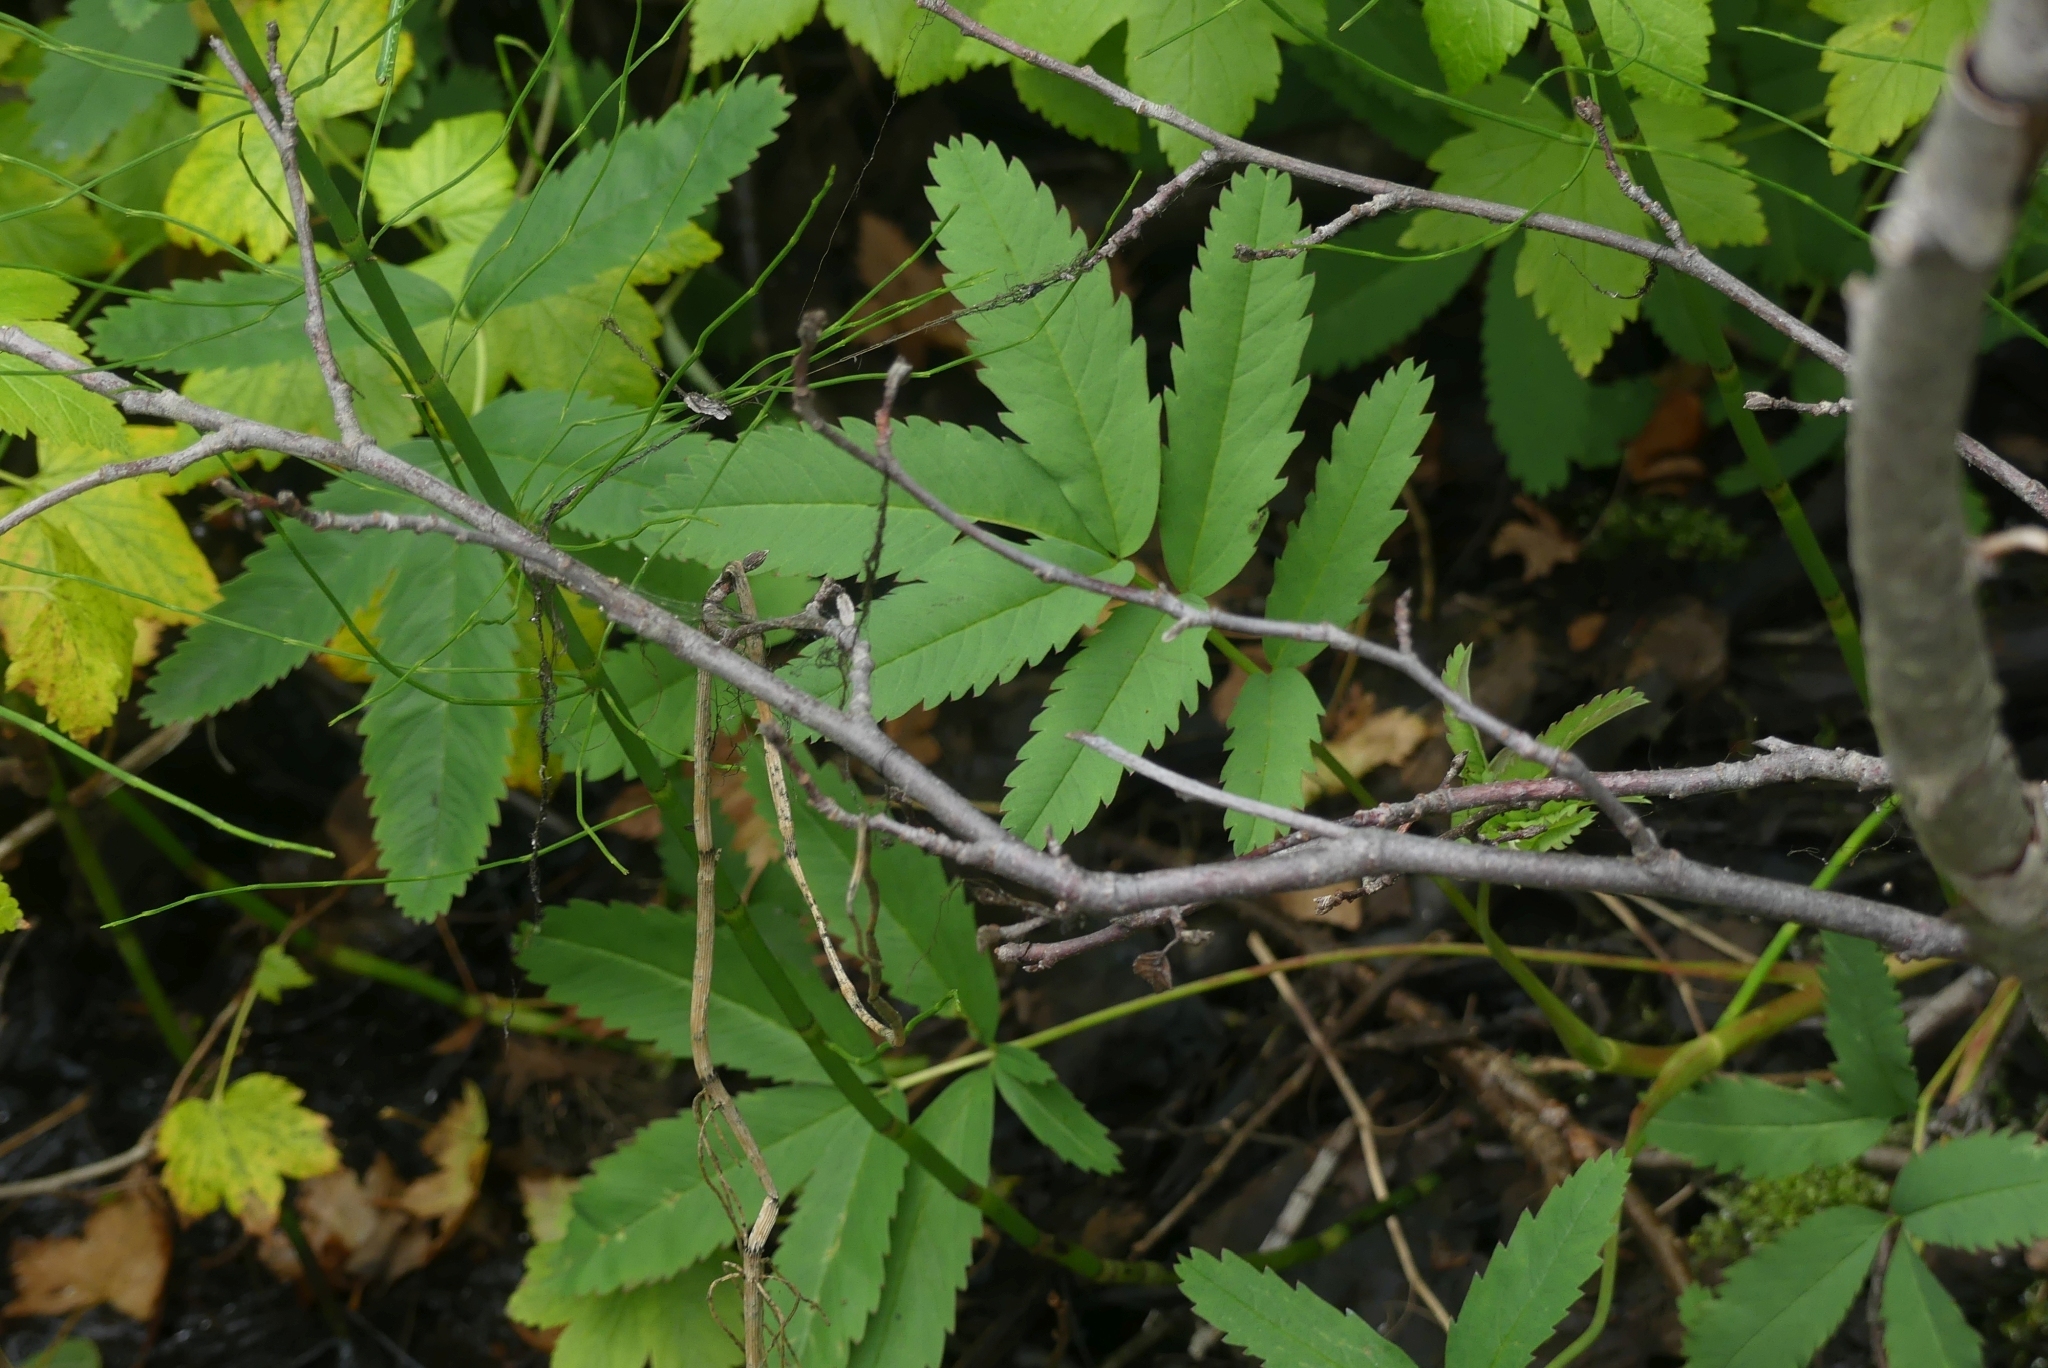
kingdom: Plantae
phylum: Tracheophyta
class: Magnoliopsida
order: Rosales
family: Rosaceae
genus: Comarum
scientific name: Comarum palustre
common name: Marsh cinquefoil
